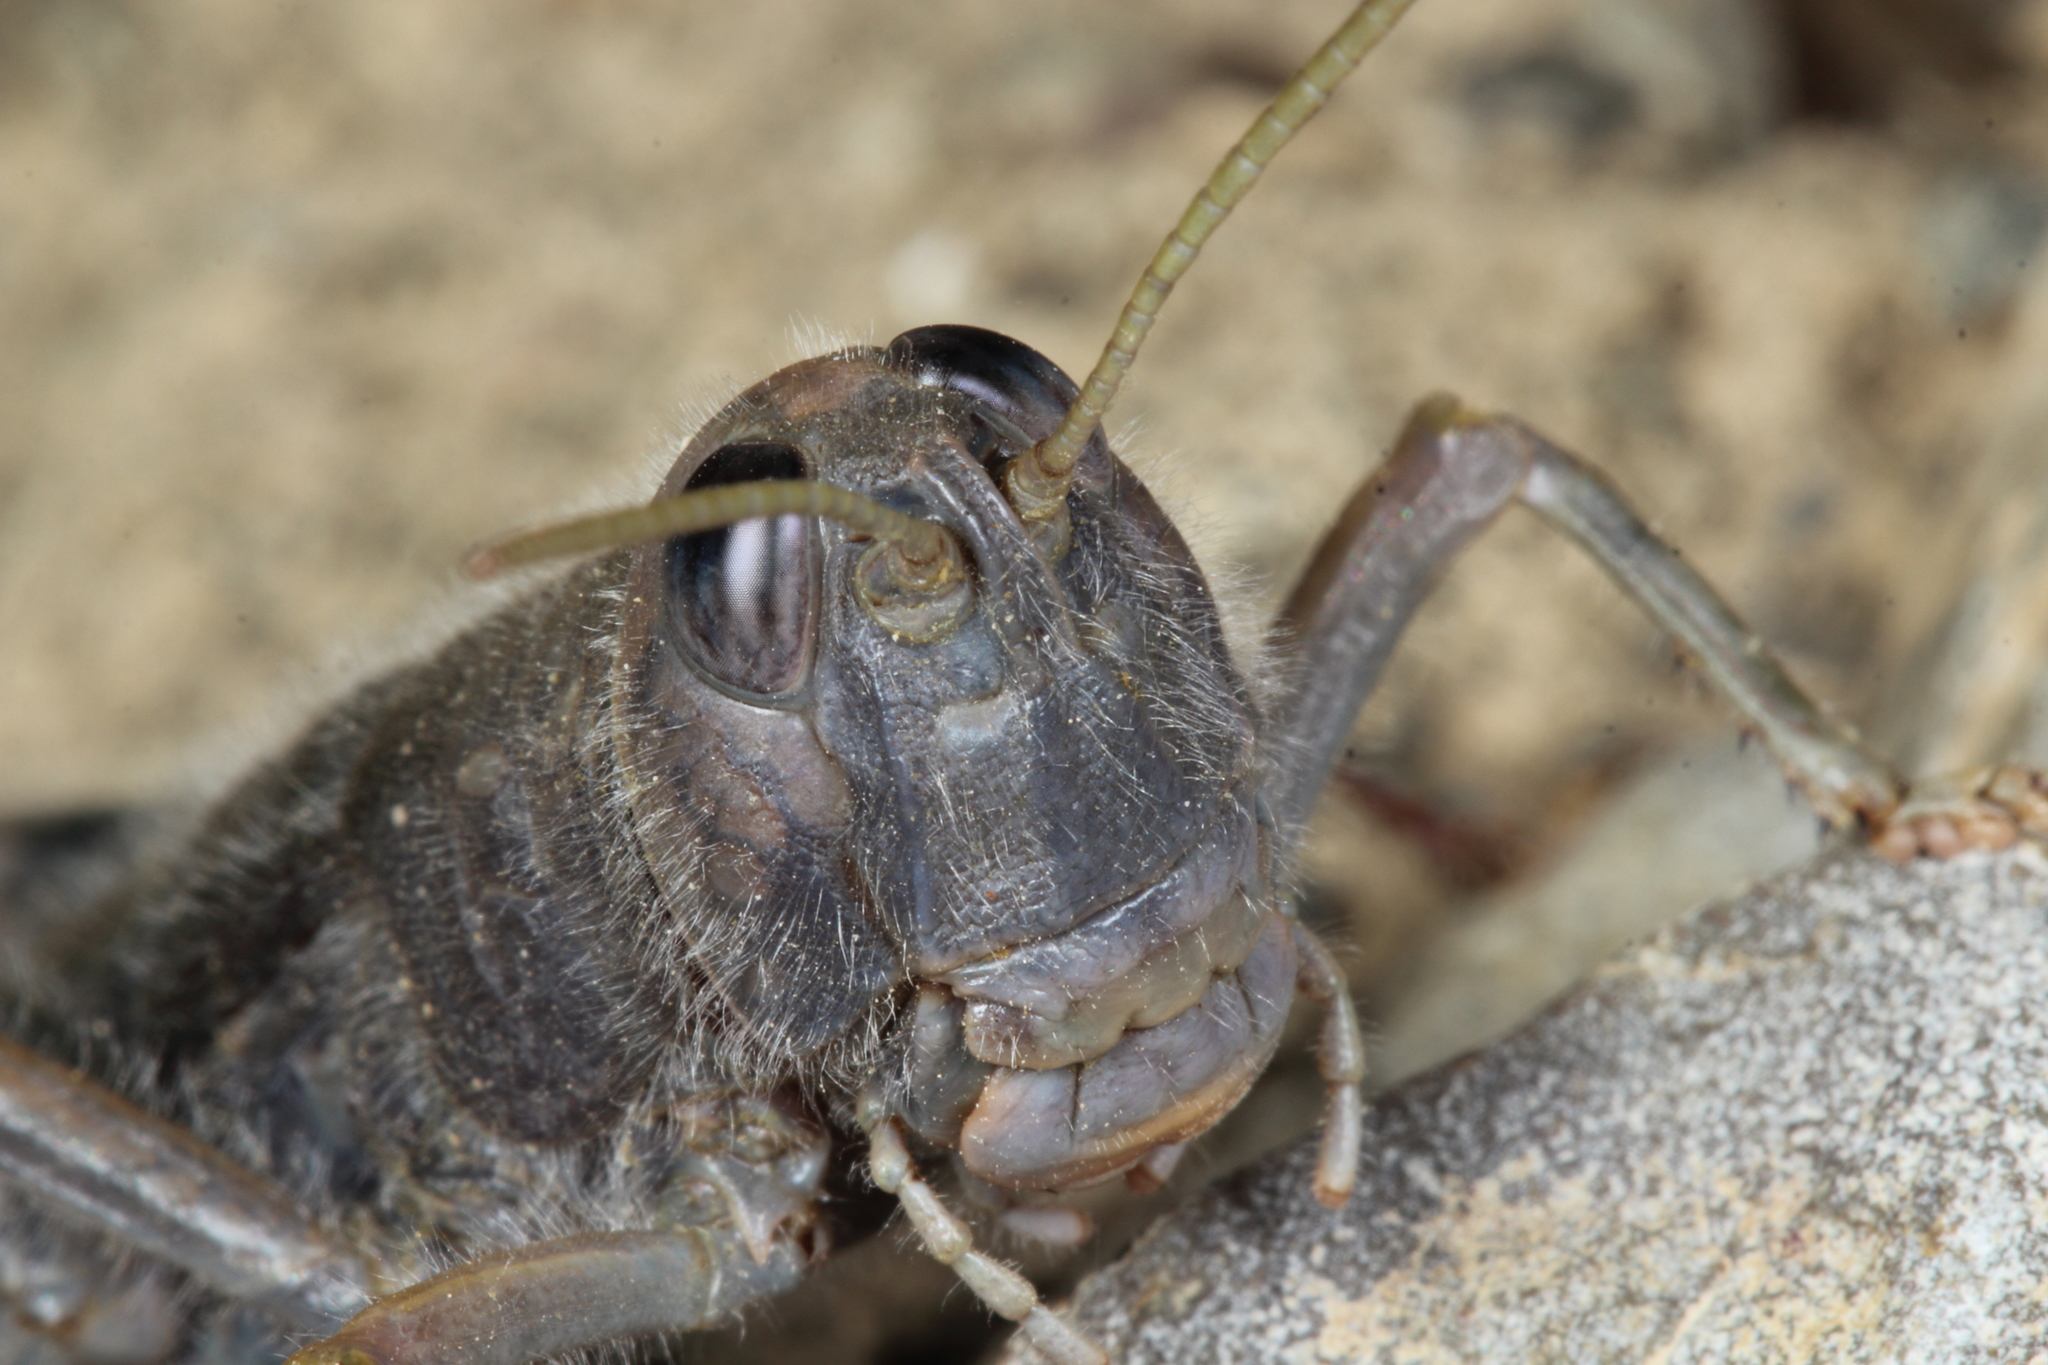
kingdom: Animalia
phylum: Arthropoda
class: Insecta
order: Orthoptera
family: Acrididae
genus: Sigaus
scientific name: Sigaus villosus
